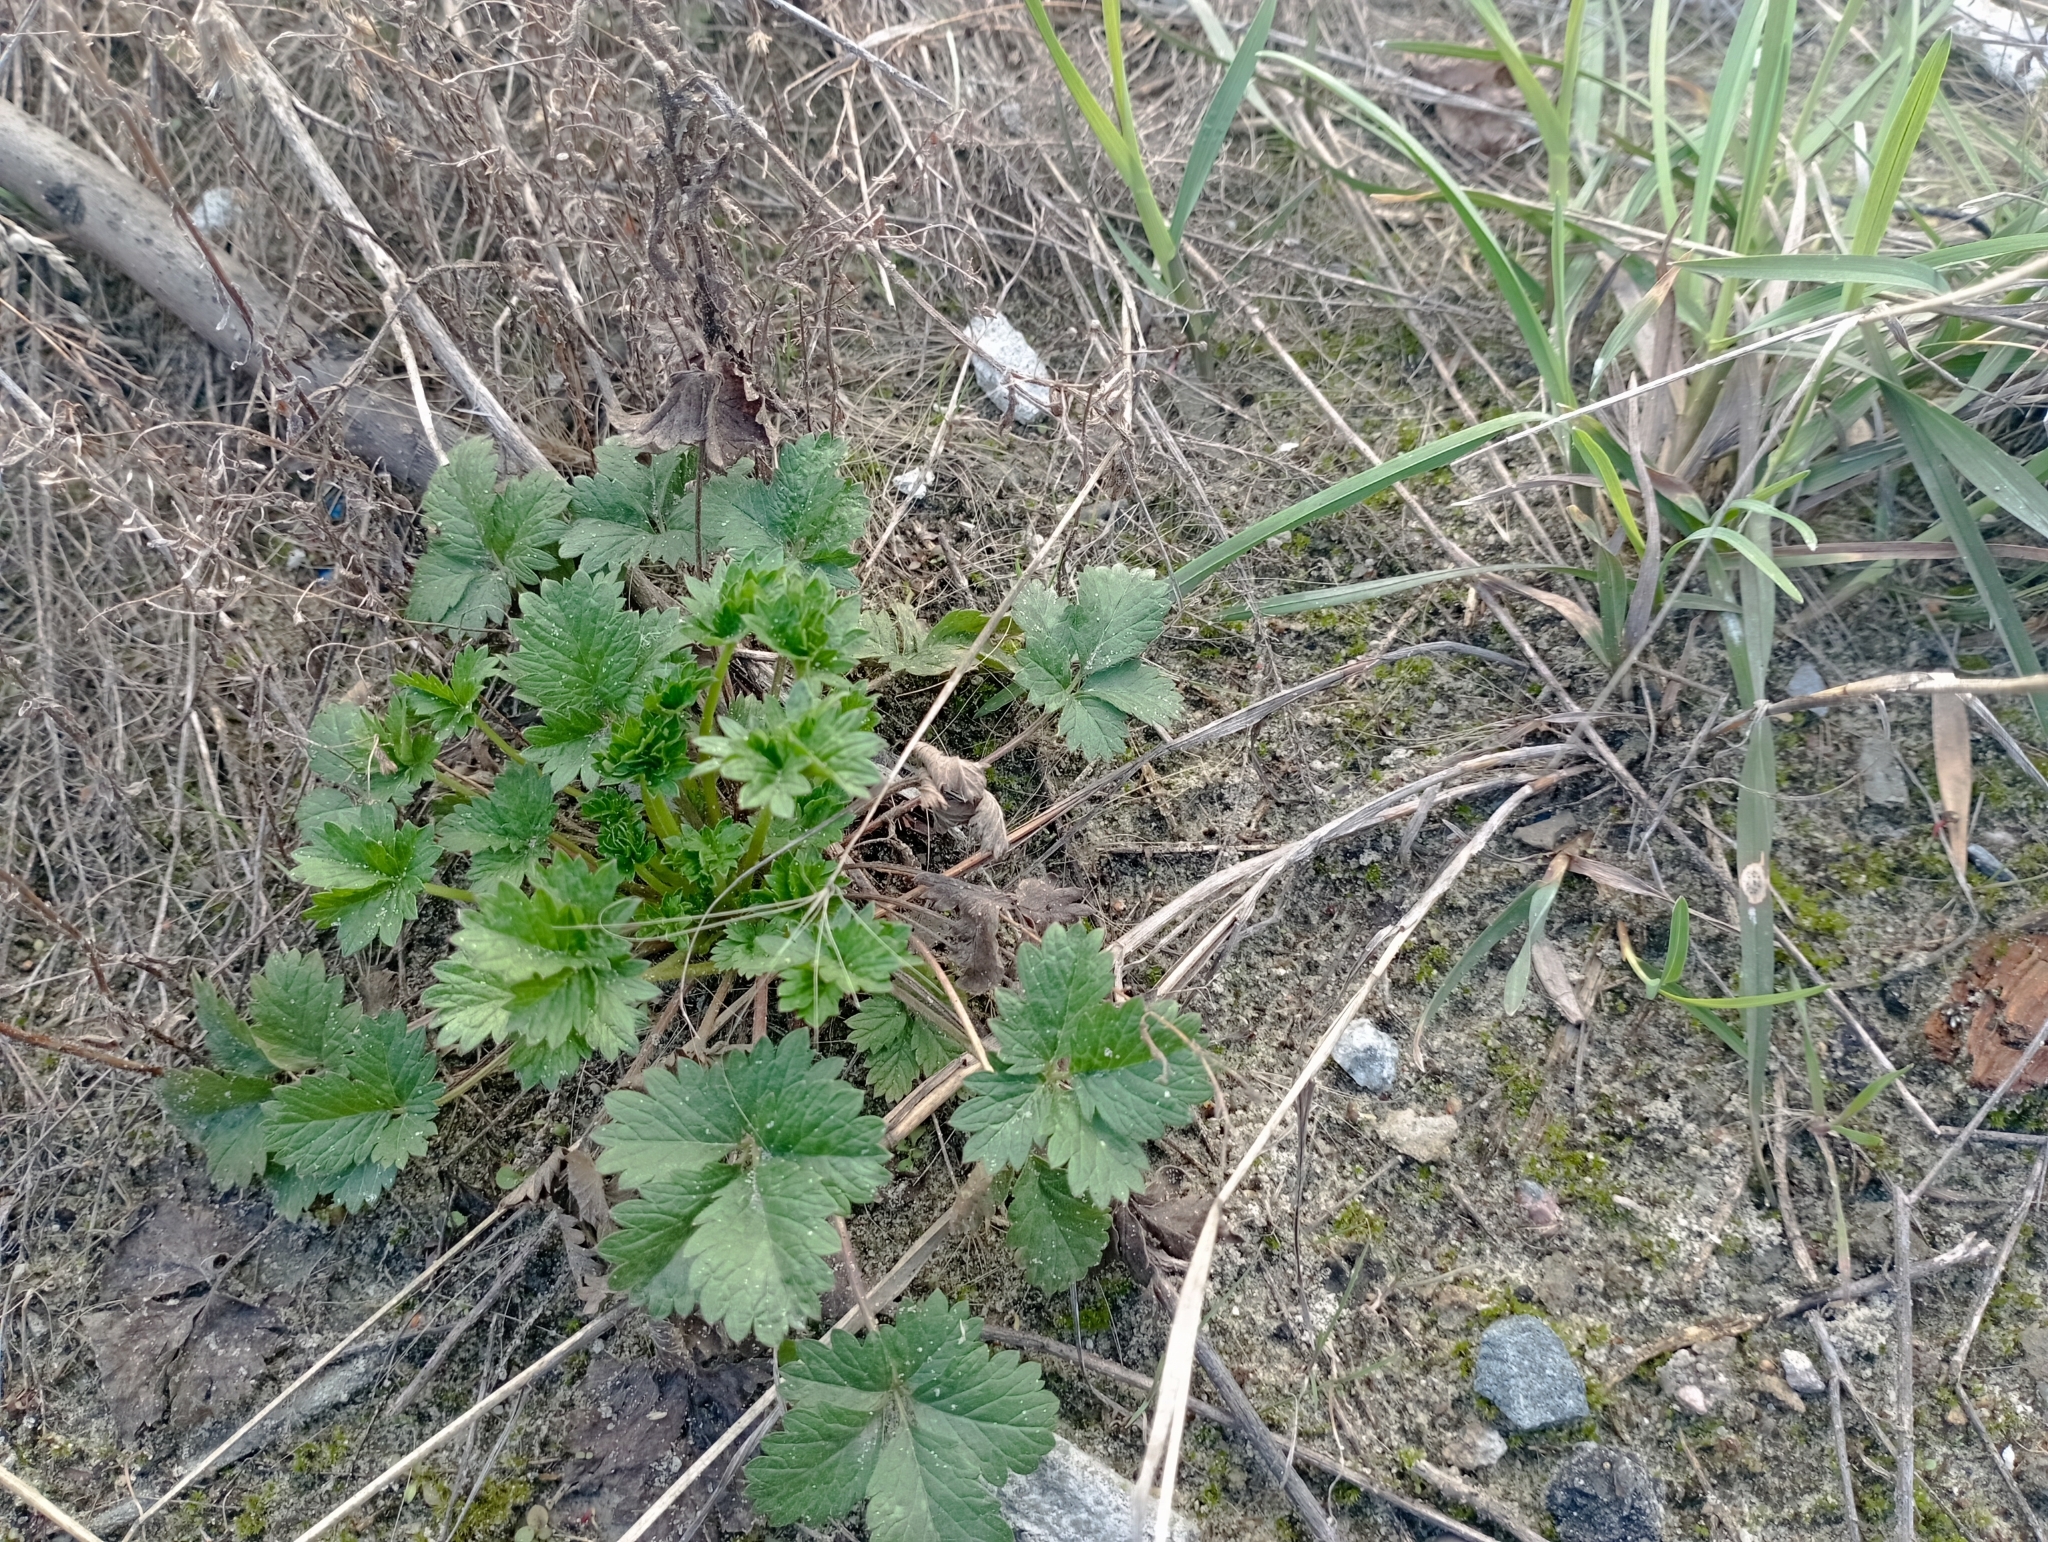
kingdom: Plantae
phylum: Tracheophyta
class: Magnoliopsida
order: Rosales
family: Rosaceae
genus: Potentilla
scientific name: Potentilla intermedia
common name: Downy cinquefoil
